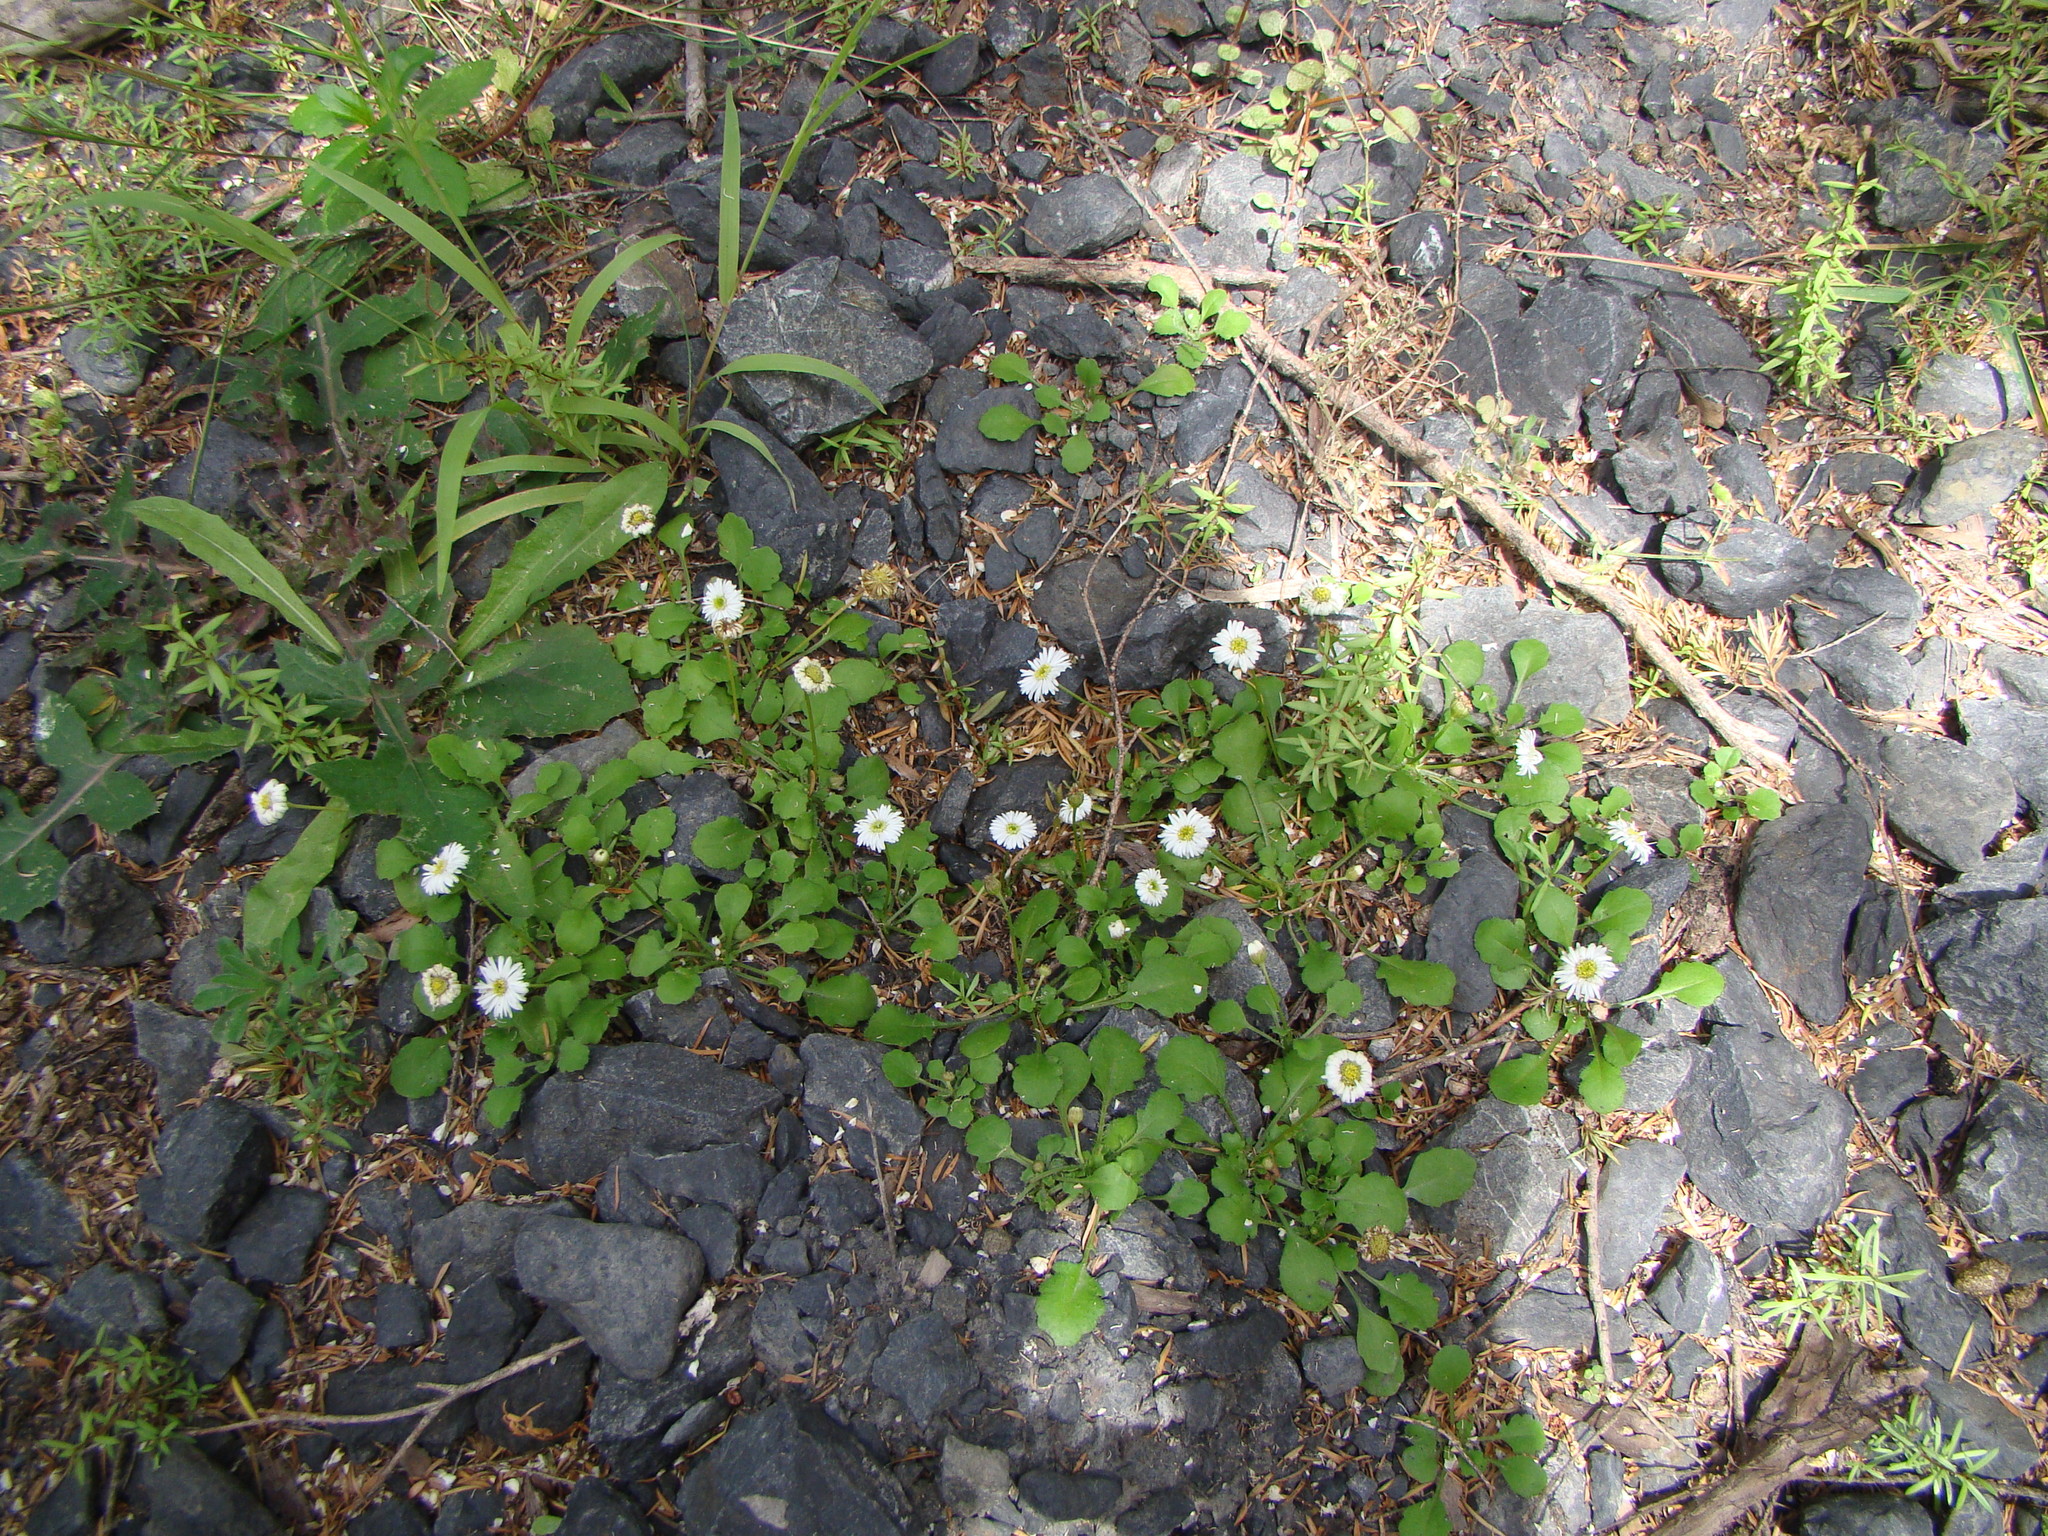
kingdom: Plantae
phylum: Tracheophyta
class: Magnoliopsida
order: Asterales
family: Asteraceae
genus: Lagenophora
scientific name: Lagenophora pumila
